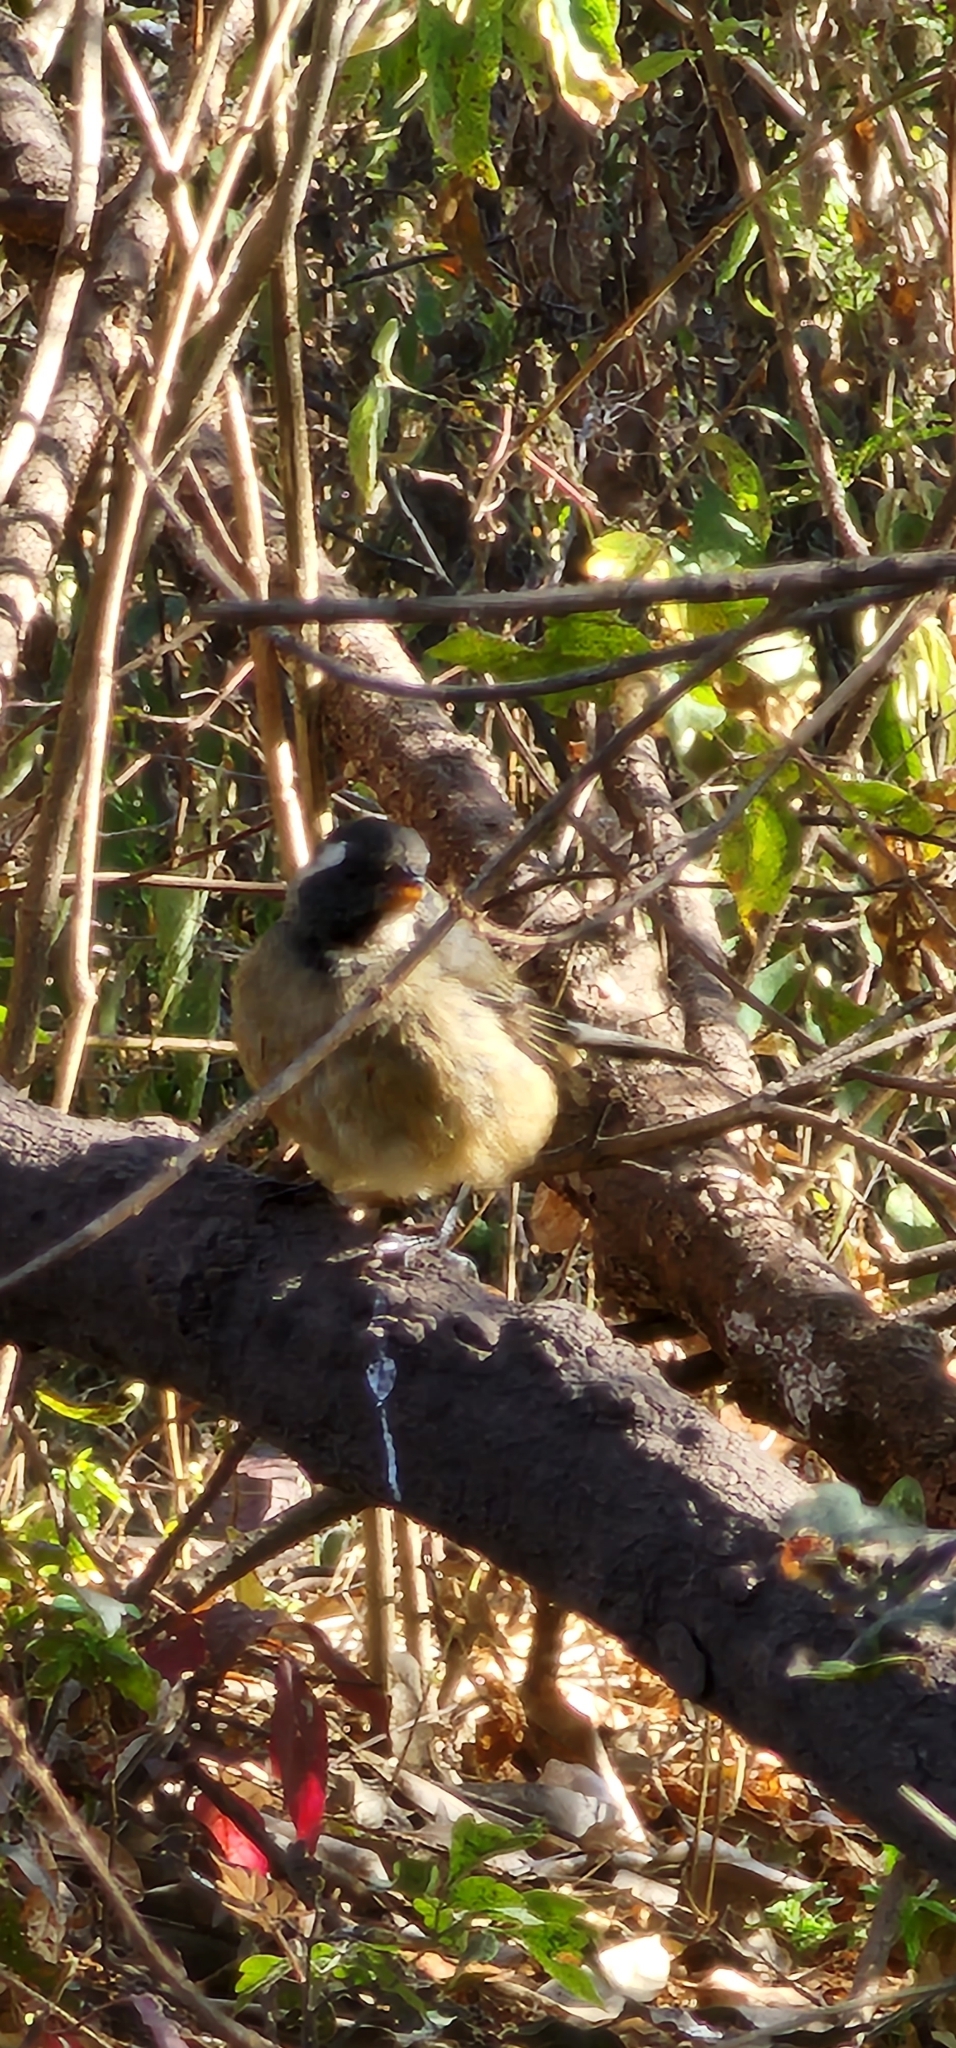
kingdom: Animalia
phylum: Chordata
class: Aves
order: Passeriformes
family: Thraupidae
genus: Saltator
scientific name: Saltator aurantiirostris
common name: Golden-billed saltator
